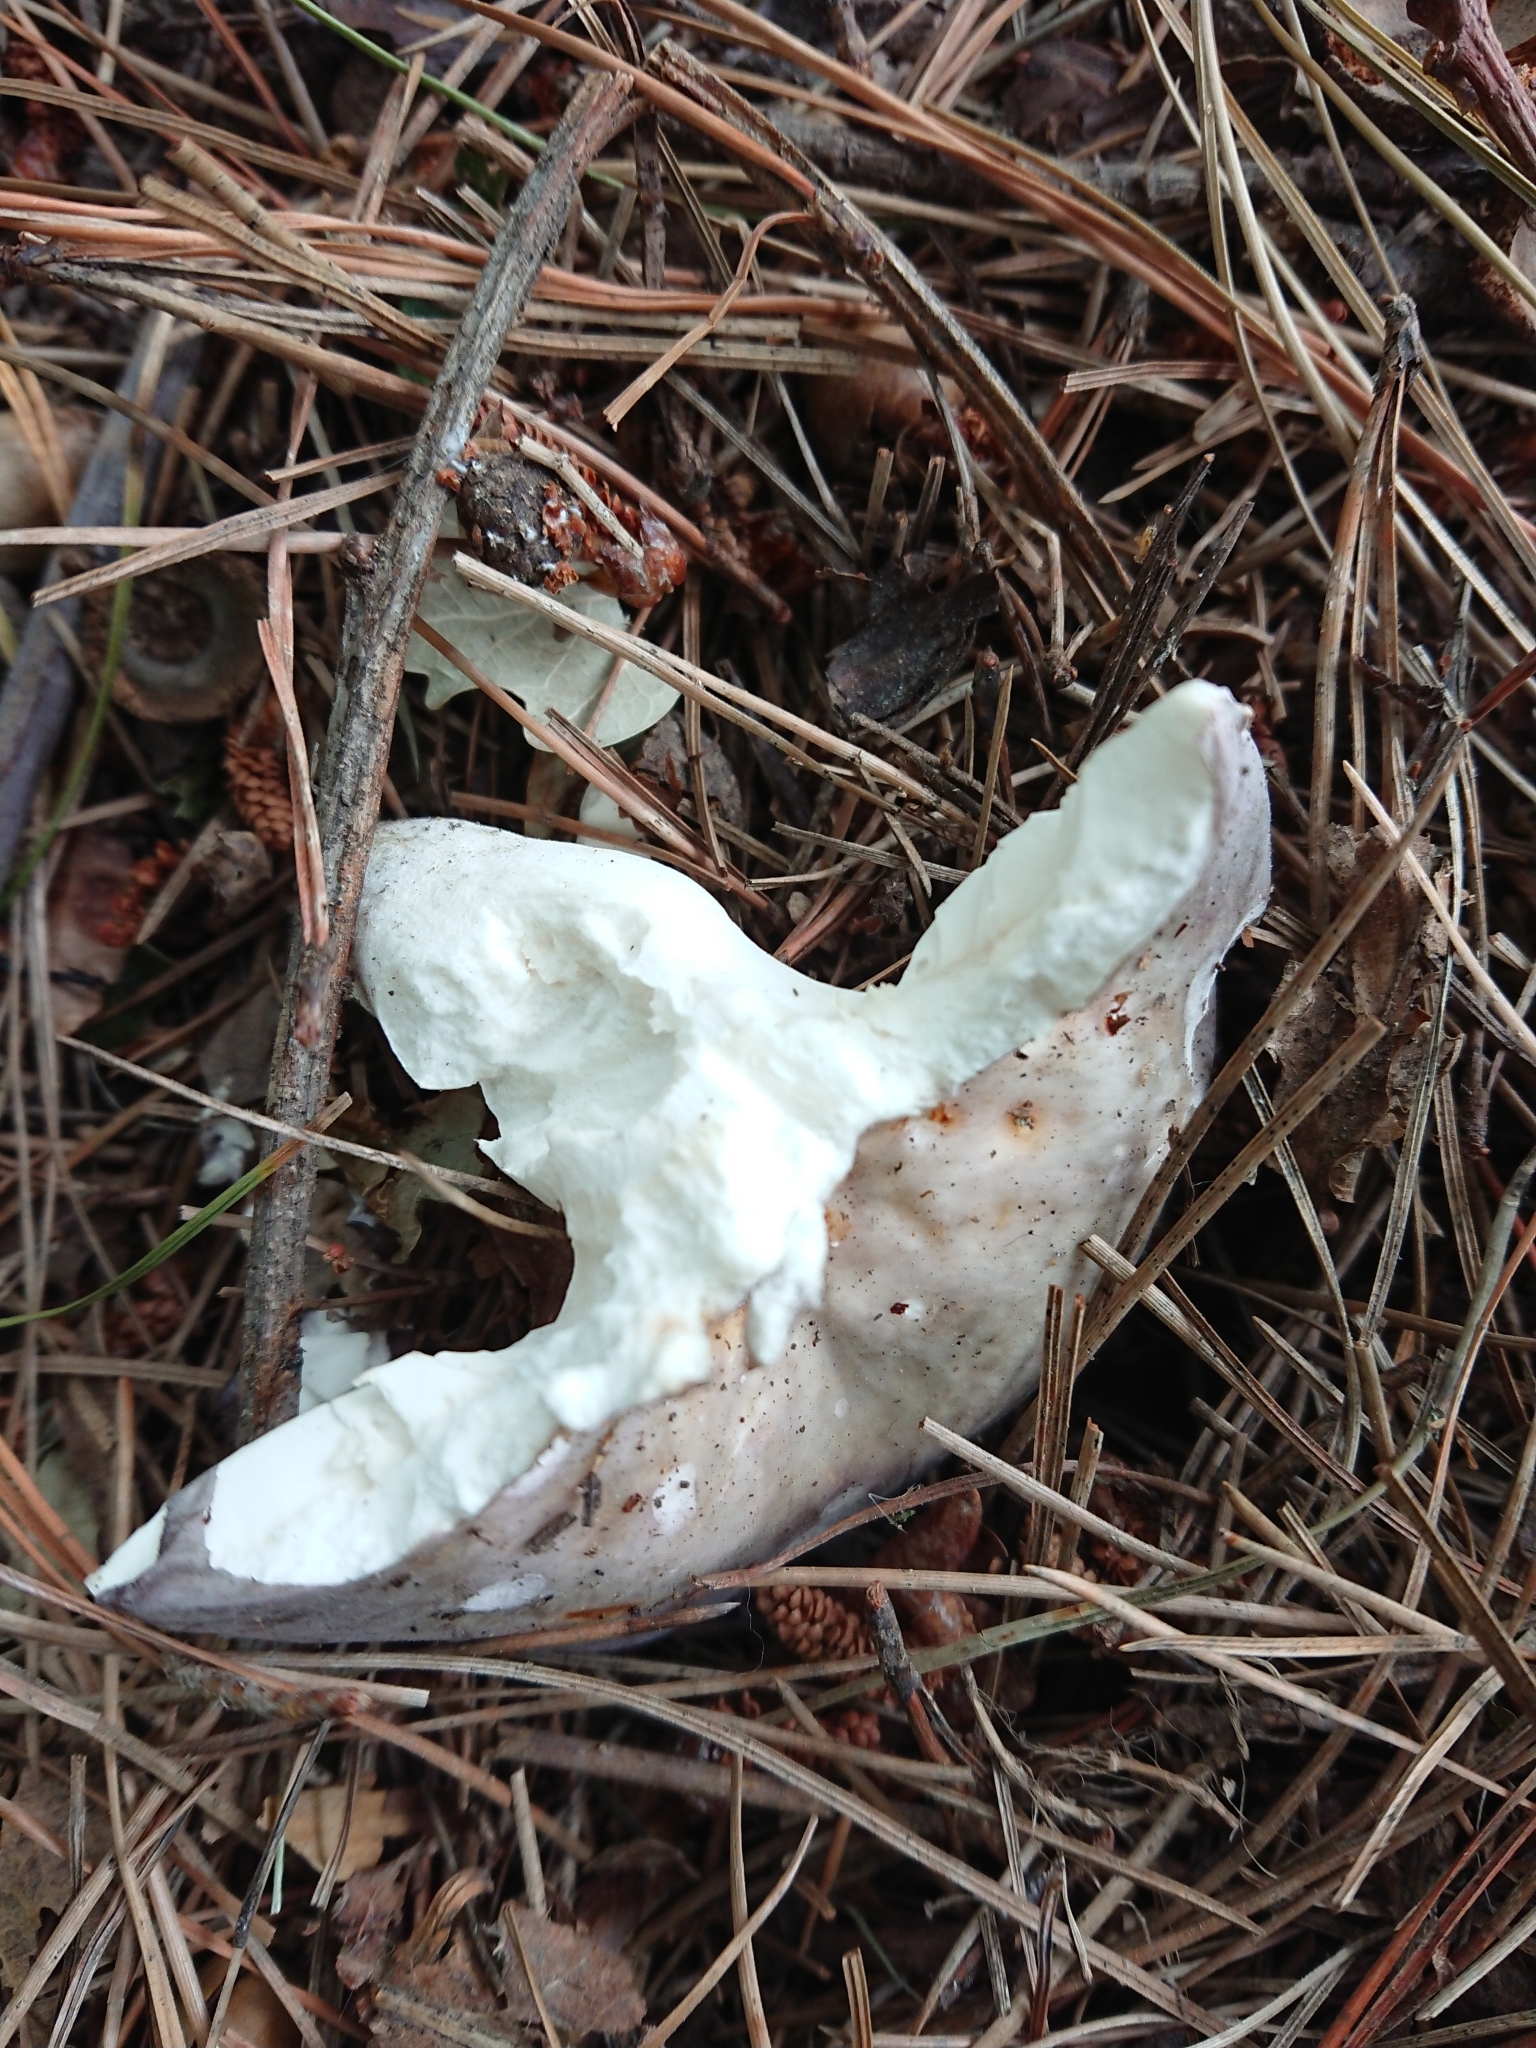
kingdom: Fungi
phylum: Basidiomycota
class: Agaricomycetes
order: Russulales
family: Russulaceae
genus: Russula
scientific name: Russula grisea
